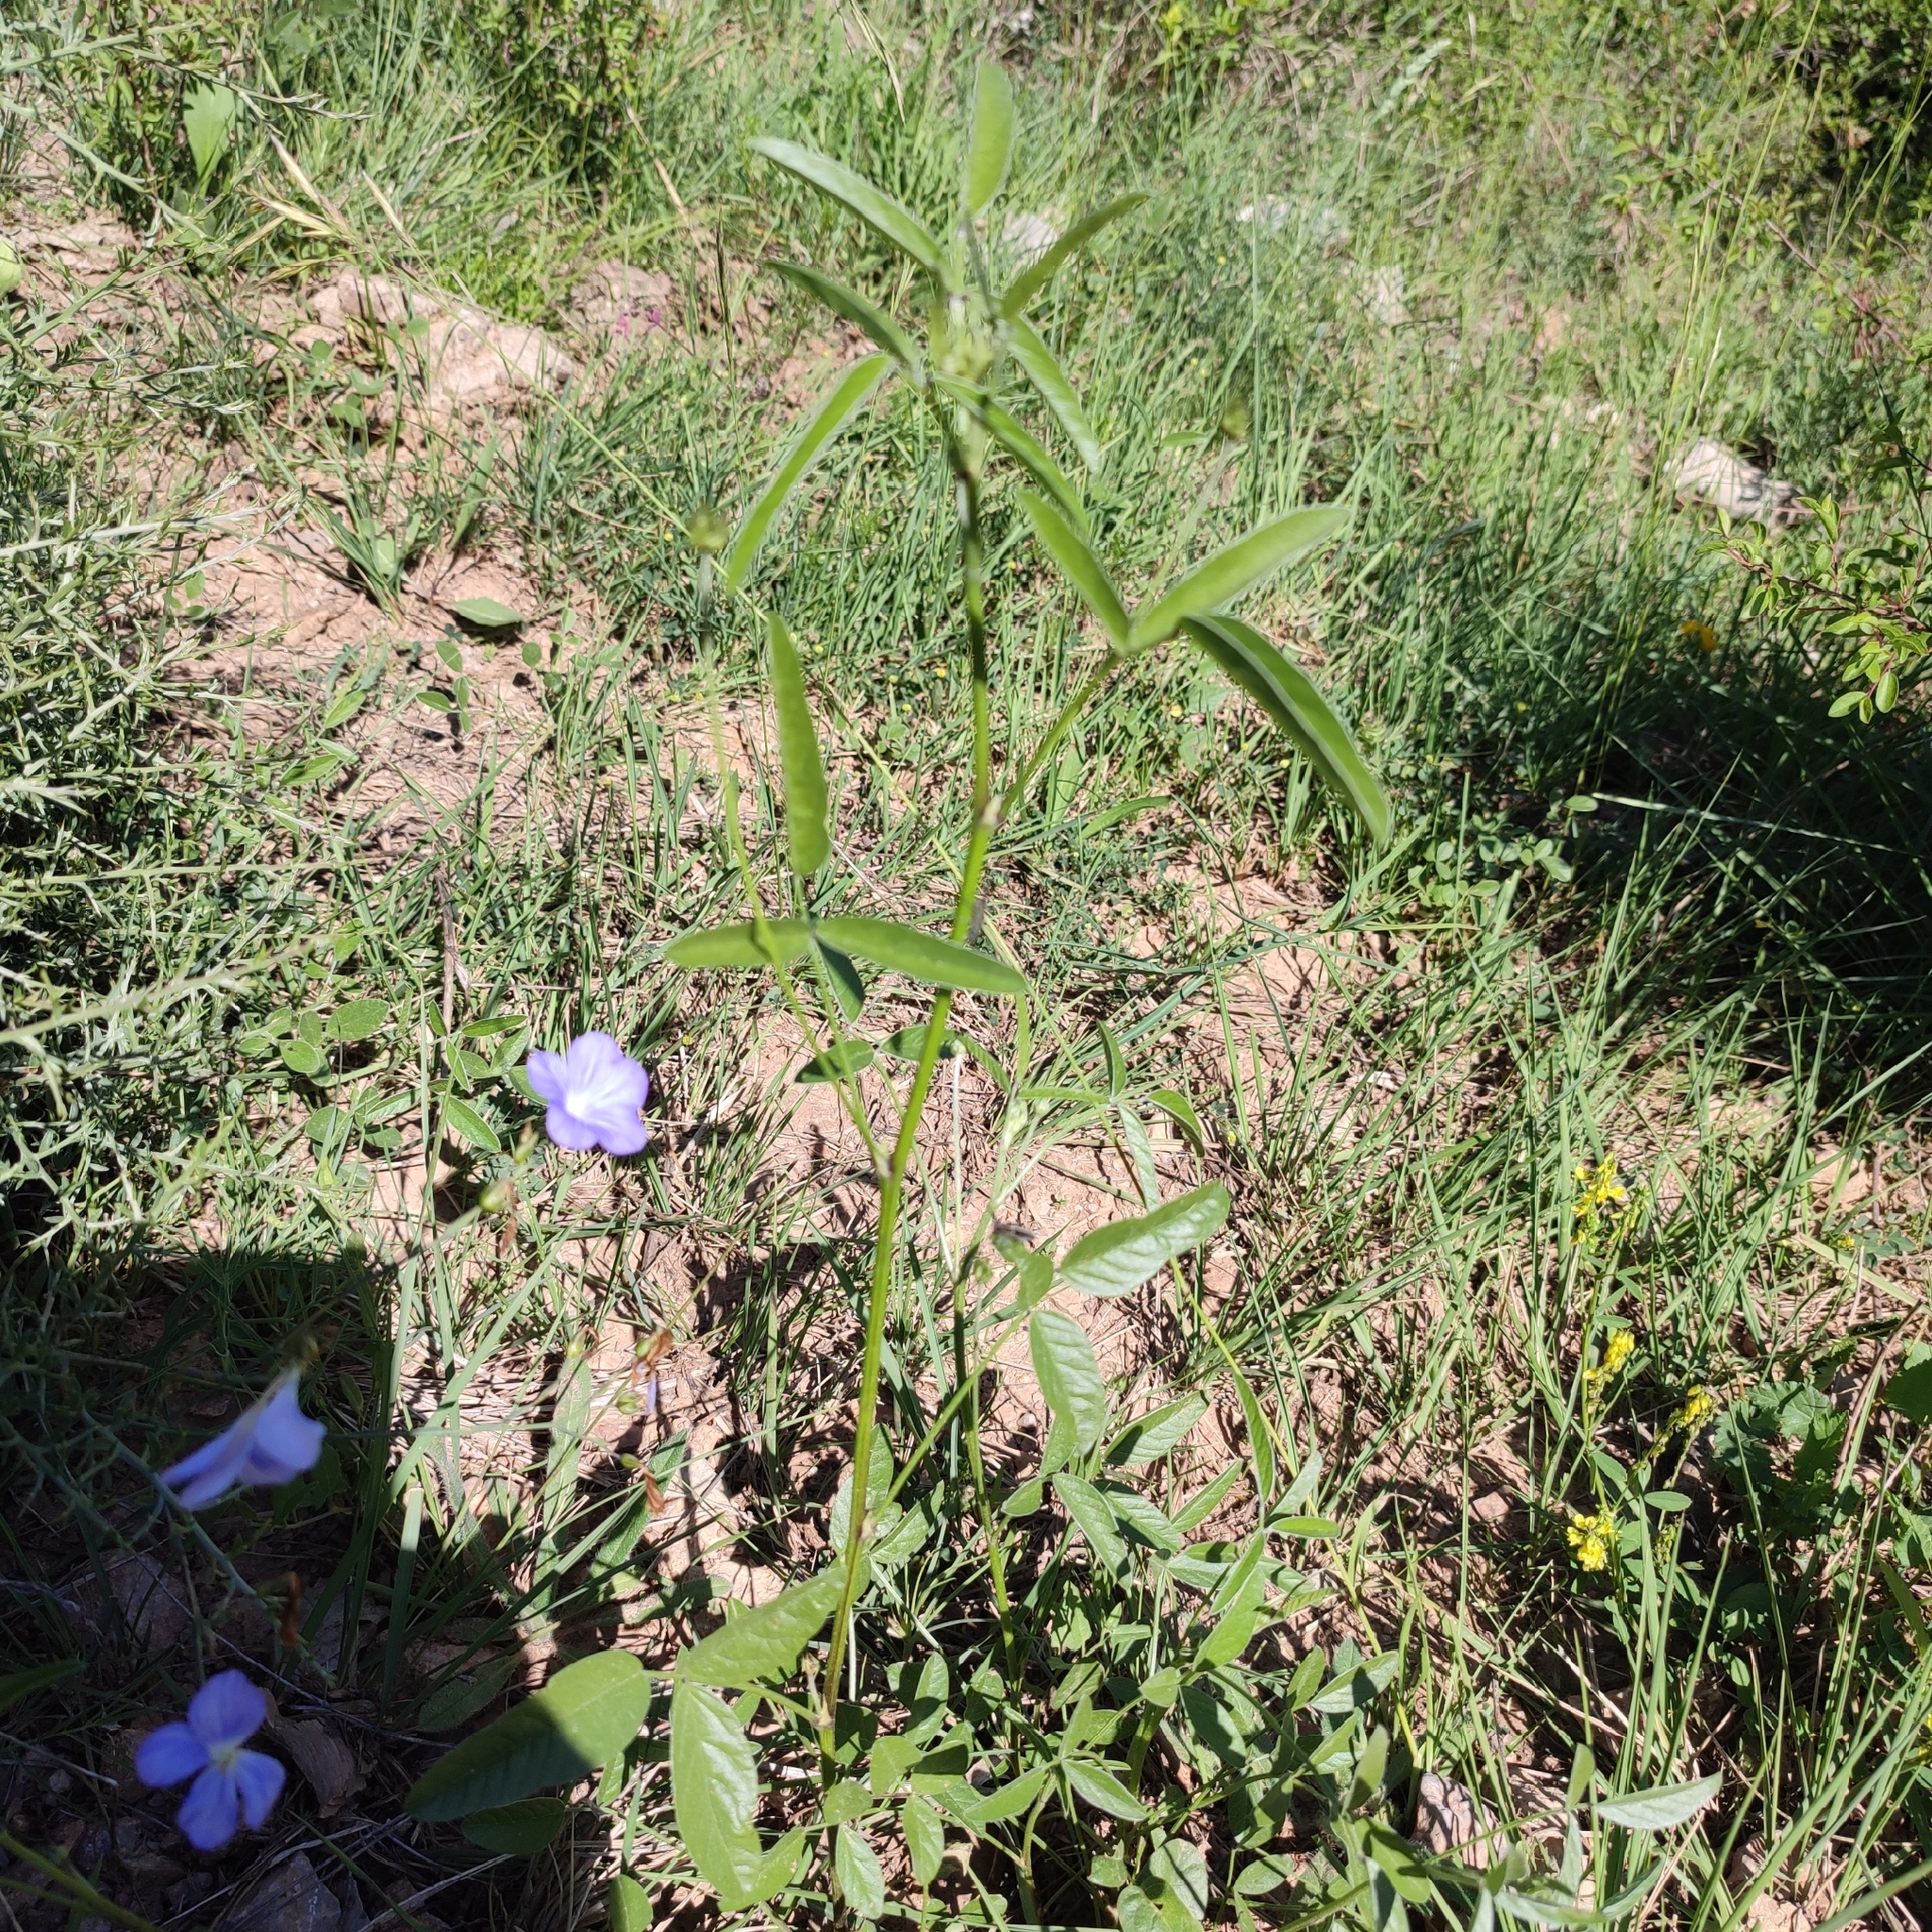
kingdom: Plantae
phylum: Tracheophyta
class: Magnoliopsida
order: Fabales
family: Fabaceae
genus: Bituminaria
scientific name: Bituminaria bituminosa
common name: Arabian pea
